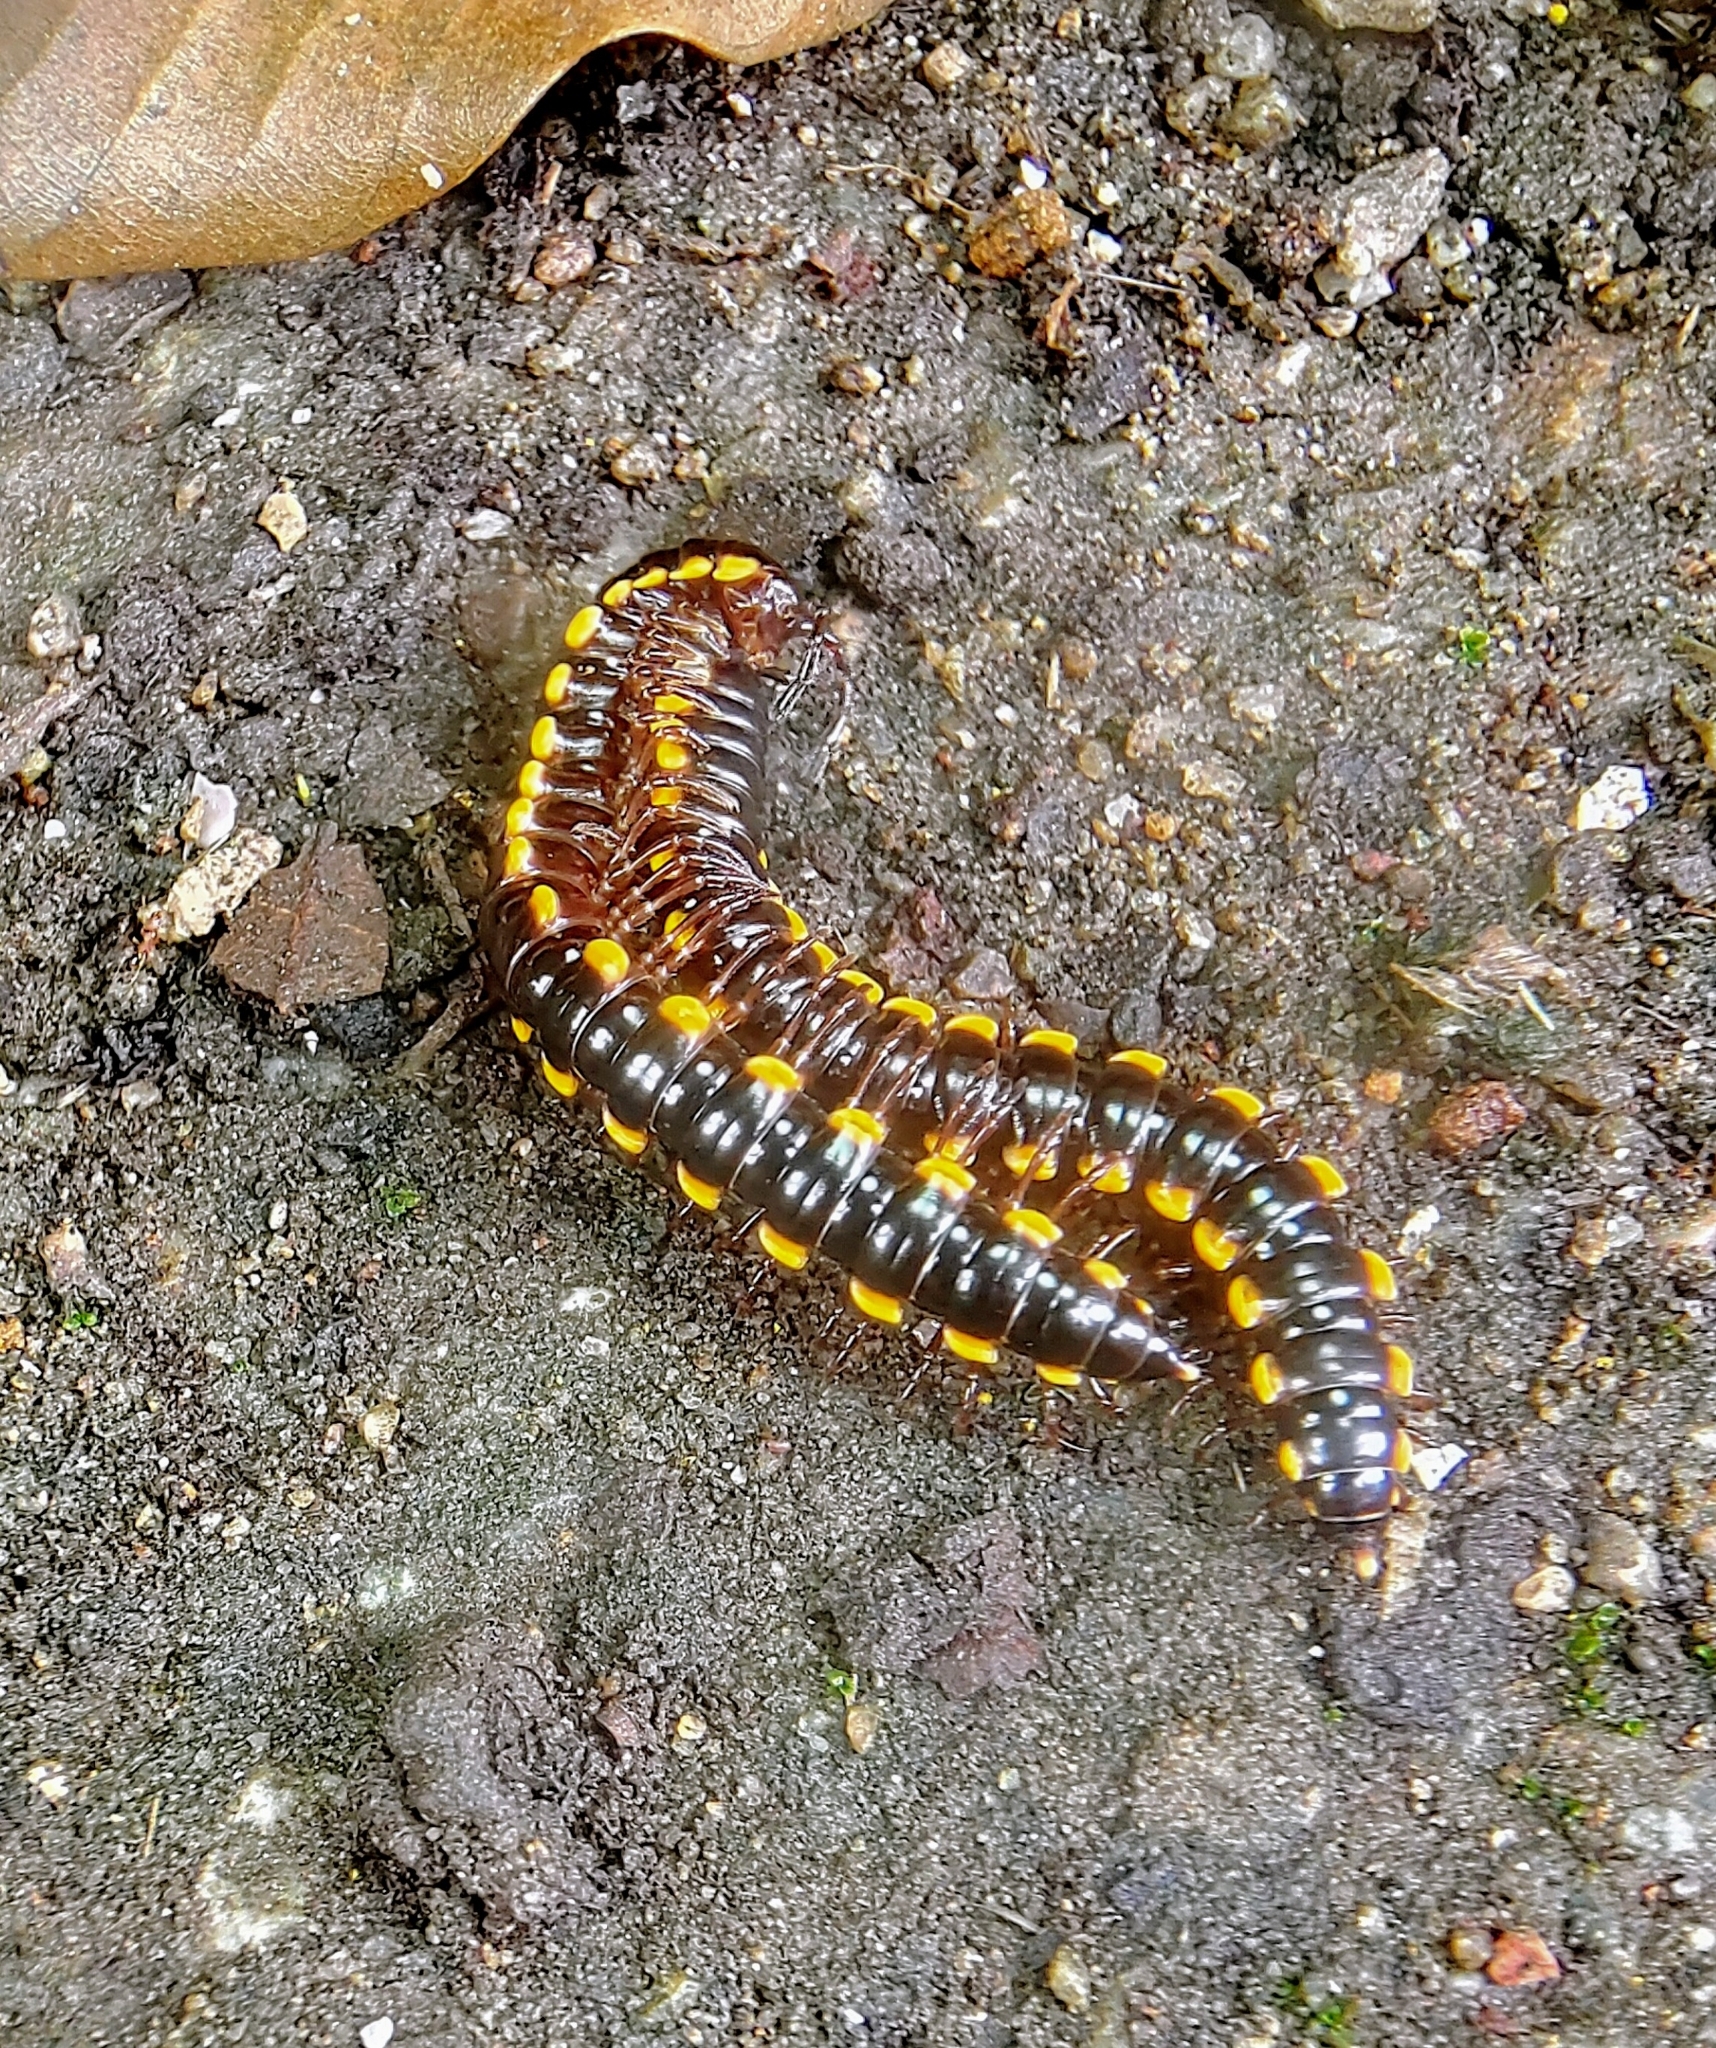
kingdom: Animalia
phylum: Arthropoda
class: Diplopoda
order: Polydesmida
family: Paradoxosomatidae
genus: Anoplodesmus
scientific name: Anoplodesmus saussurii
